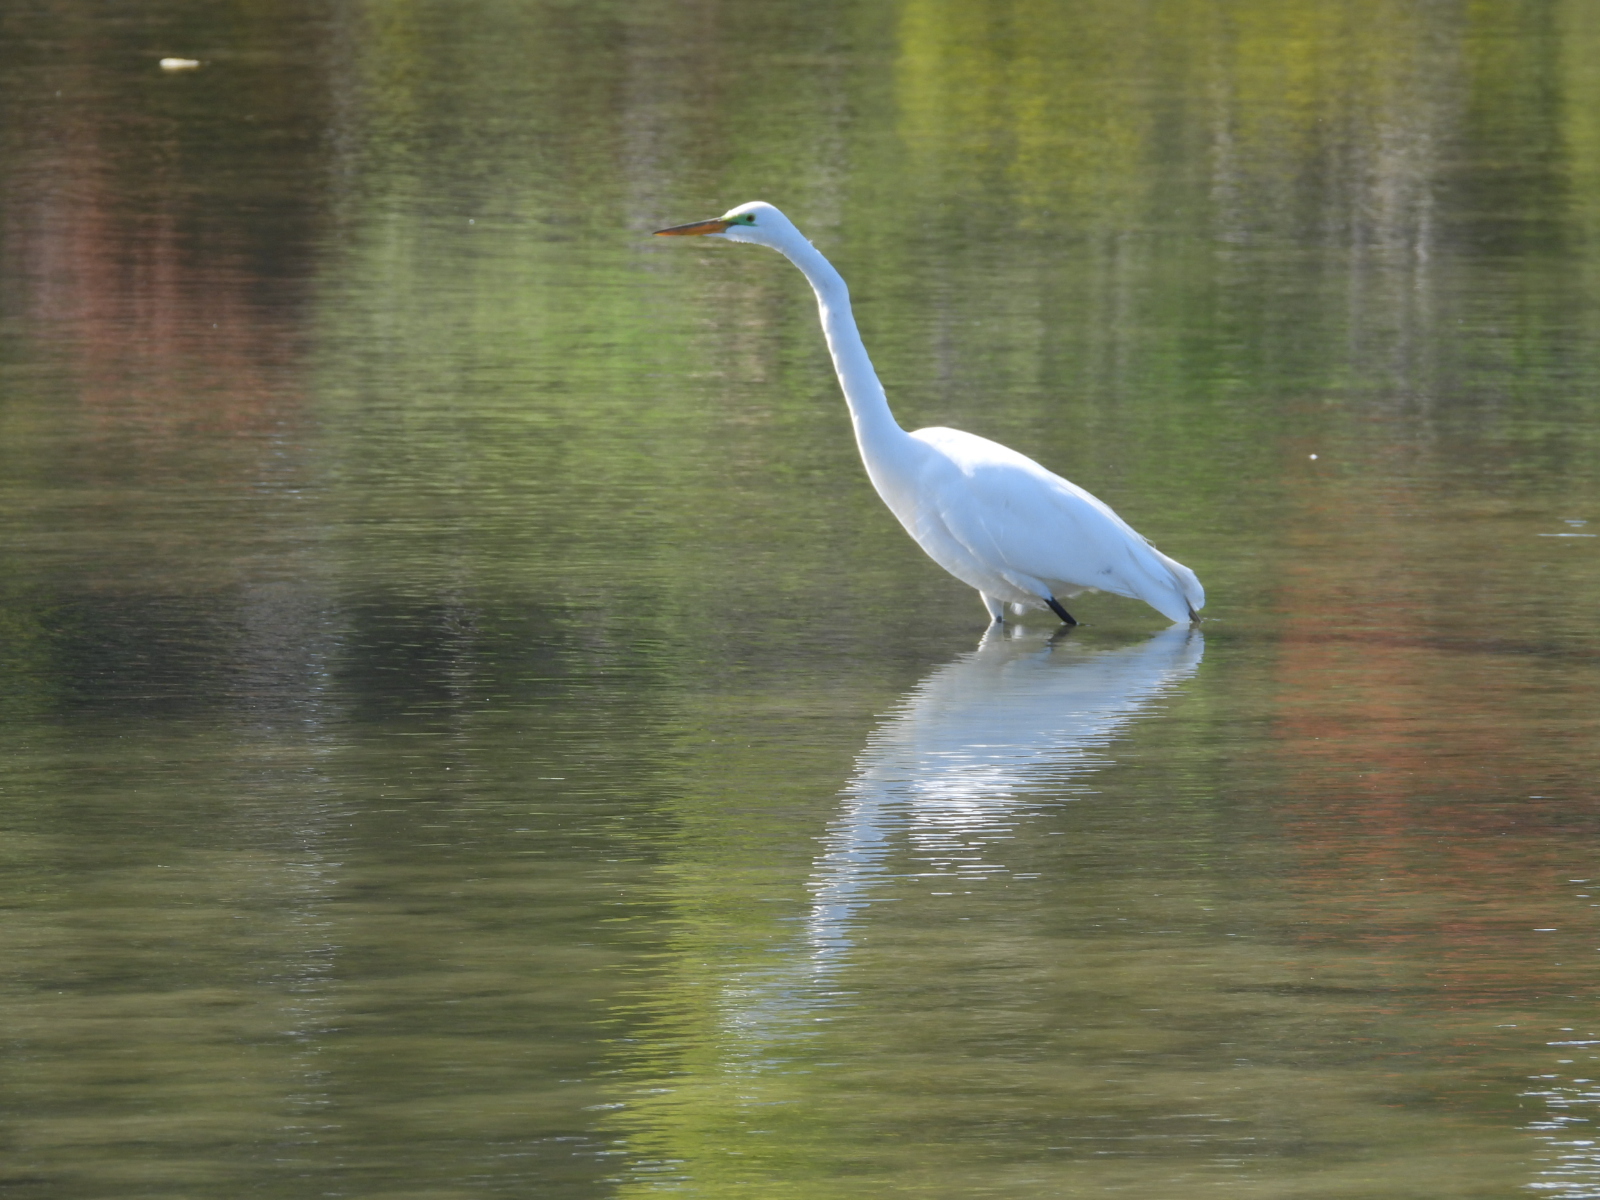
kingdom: Animalia
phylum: Chordata
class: Aves
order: Pelecaniformes
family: Ardeidae
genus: Ardea
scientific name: Ardea alba
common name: Great egret
